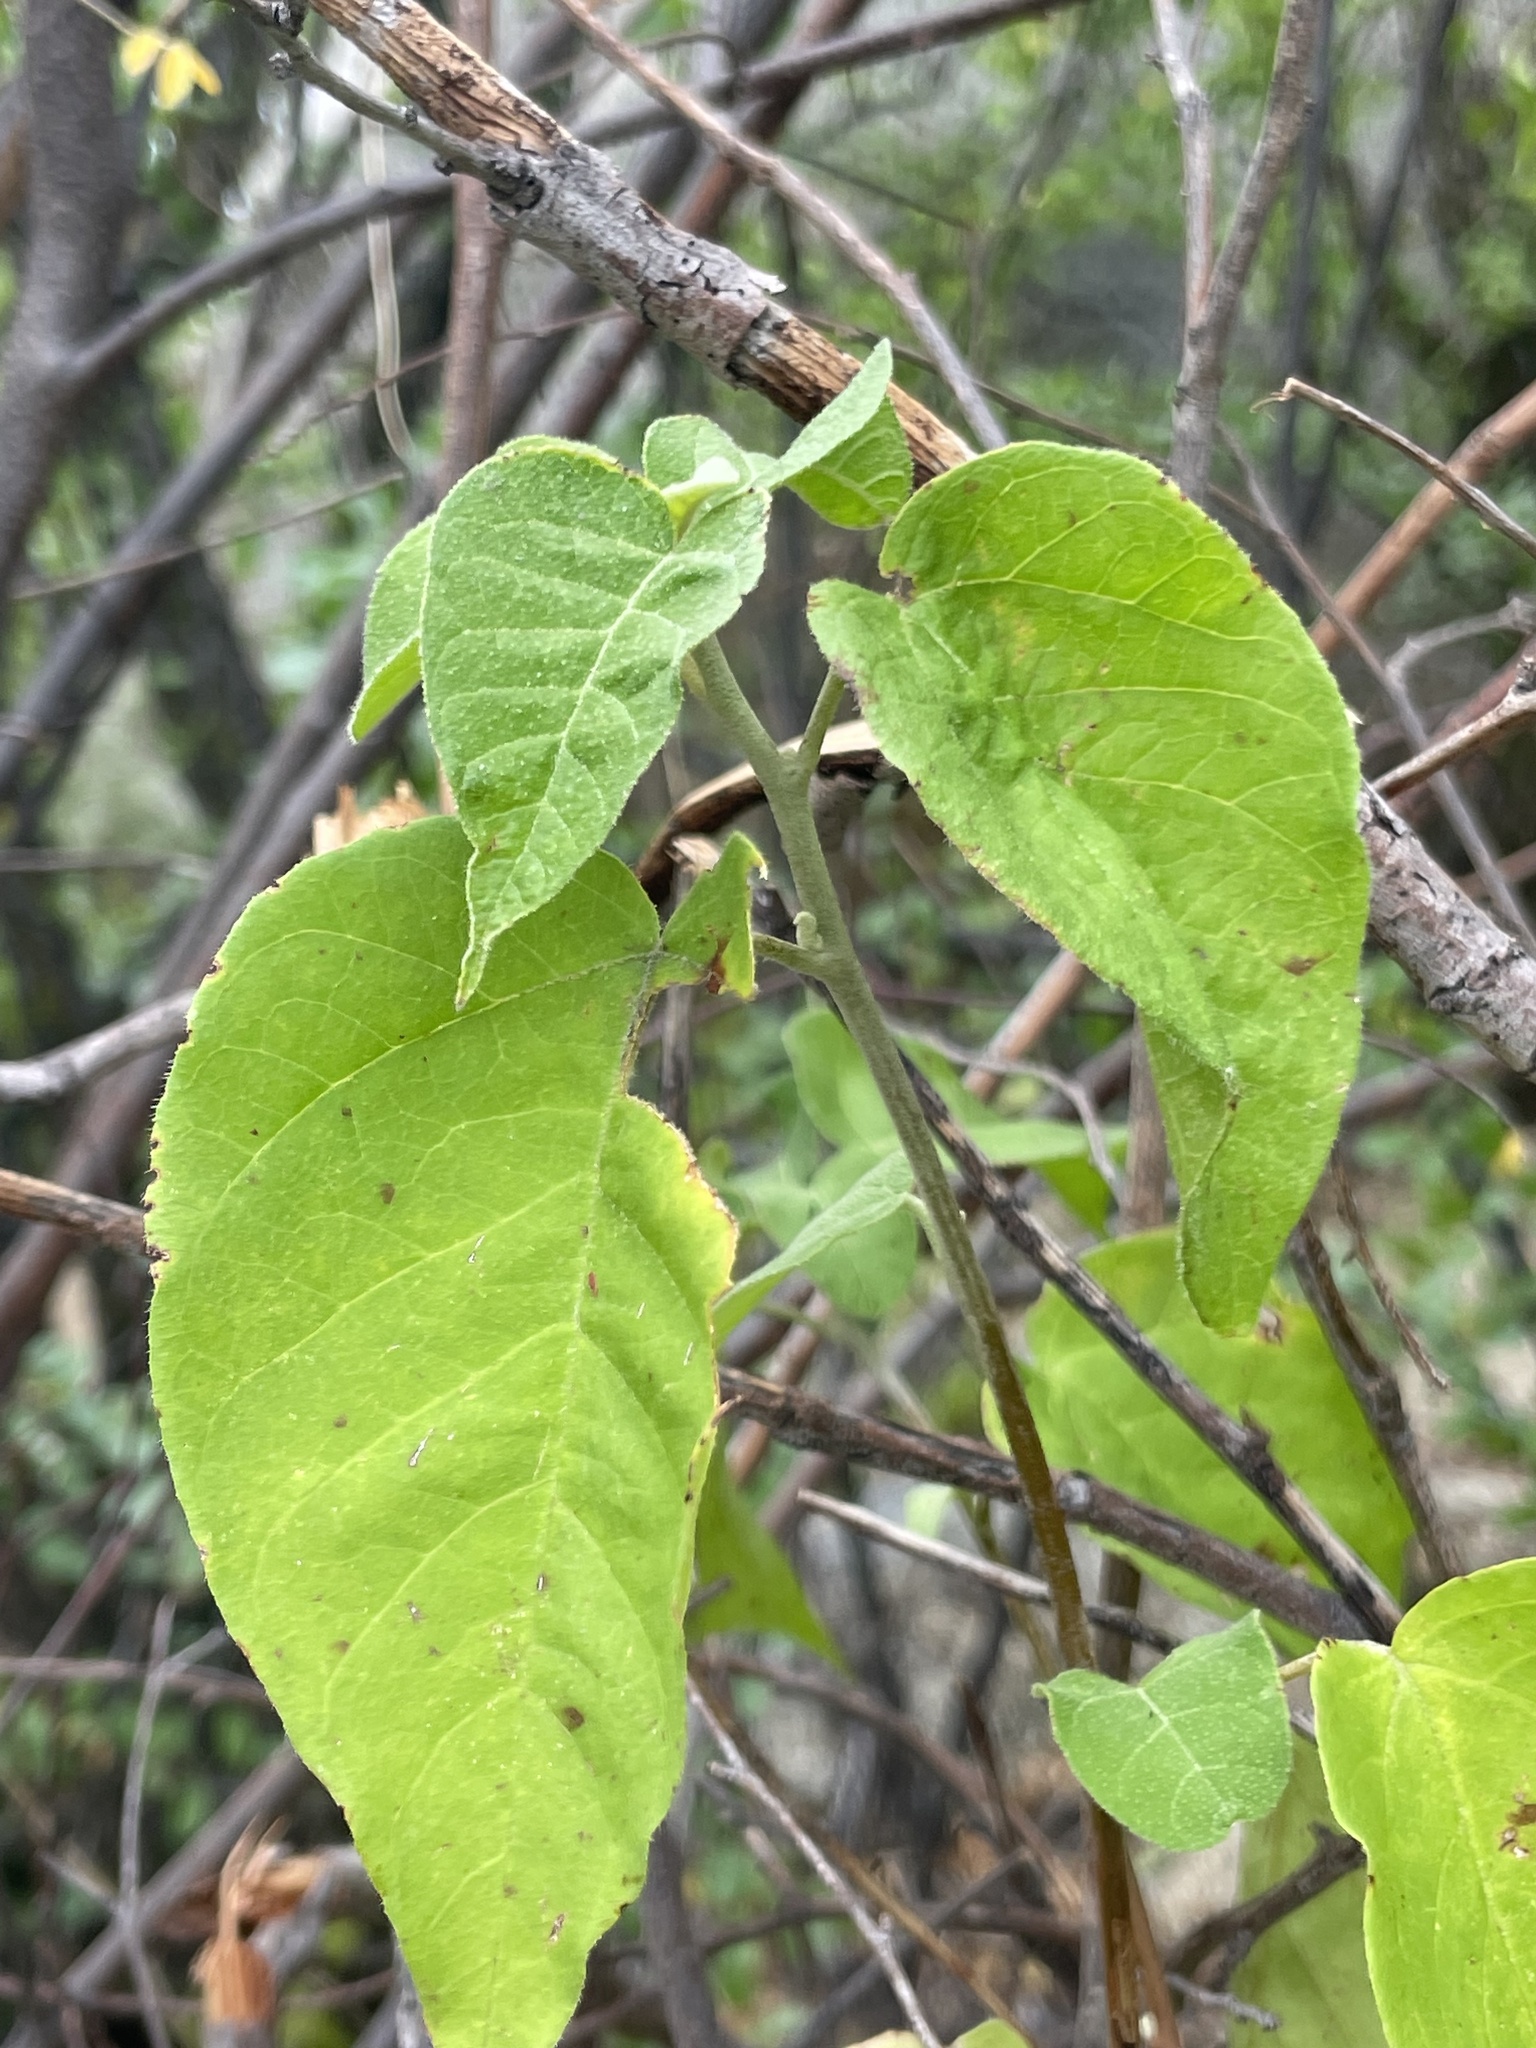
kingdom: Plantae
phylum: Tracheophyta
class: Magnoliopsida
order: Malpighiales
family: Euphorbiaceae
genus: Croton
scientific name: Croton magdalenae
